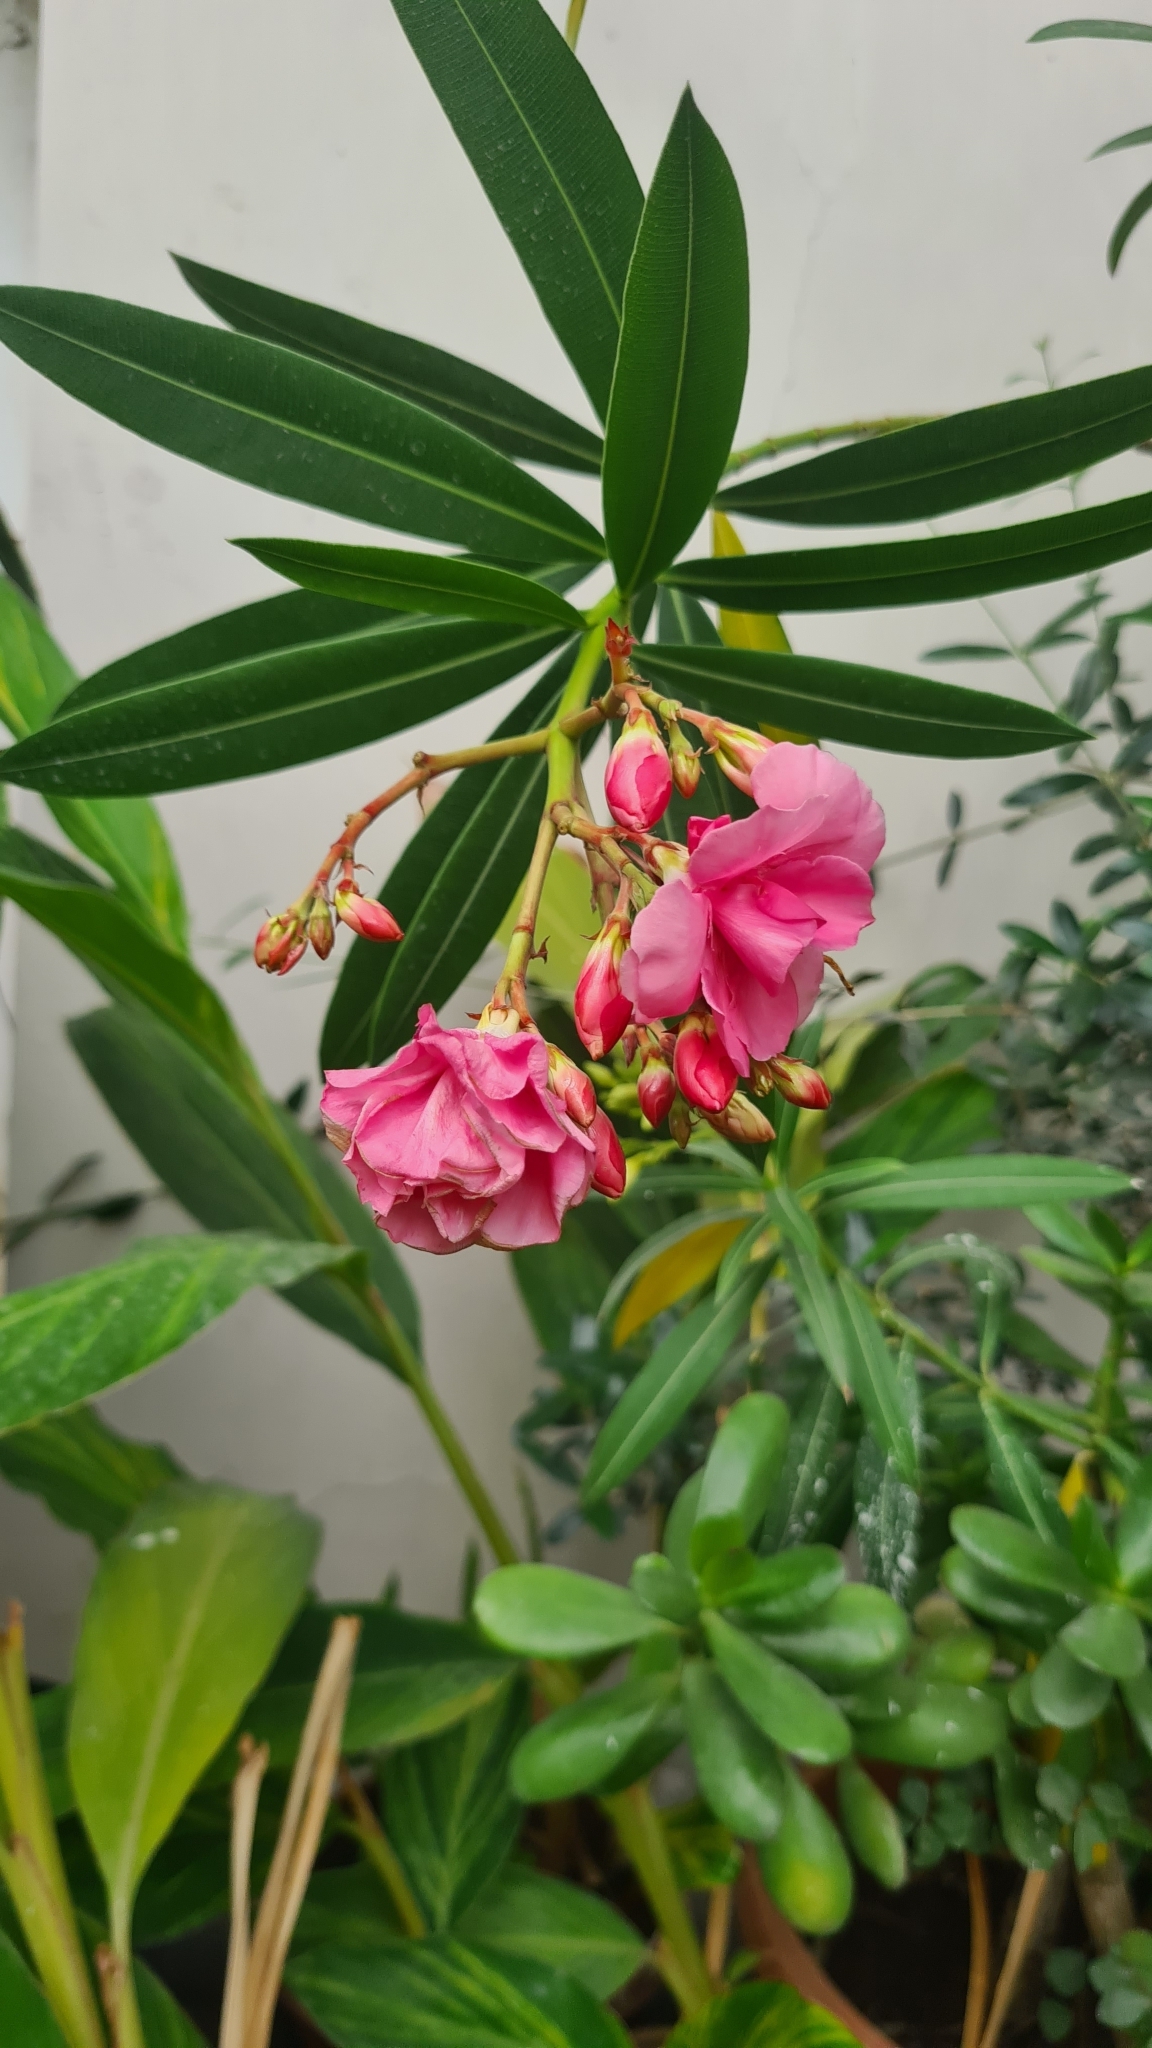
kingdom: Plantae
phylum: Tracheophyta
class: Magnoliopsida
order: Gentianales
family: Apocynaceae
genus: Nerium
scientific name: Nerium oleander
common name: Oleander
